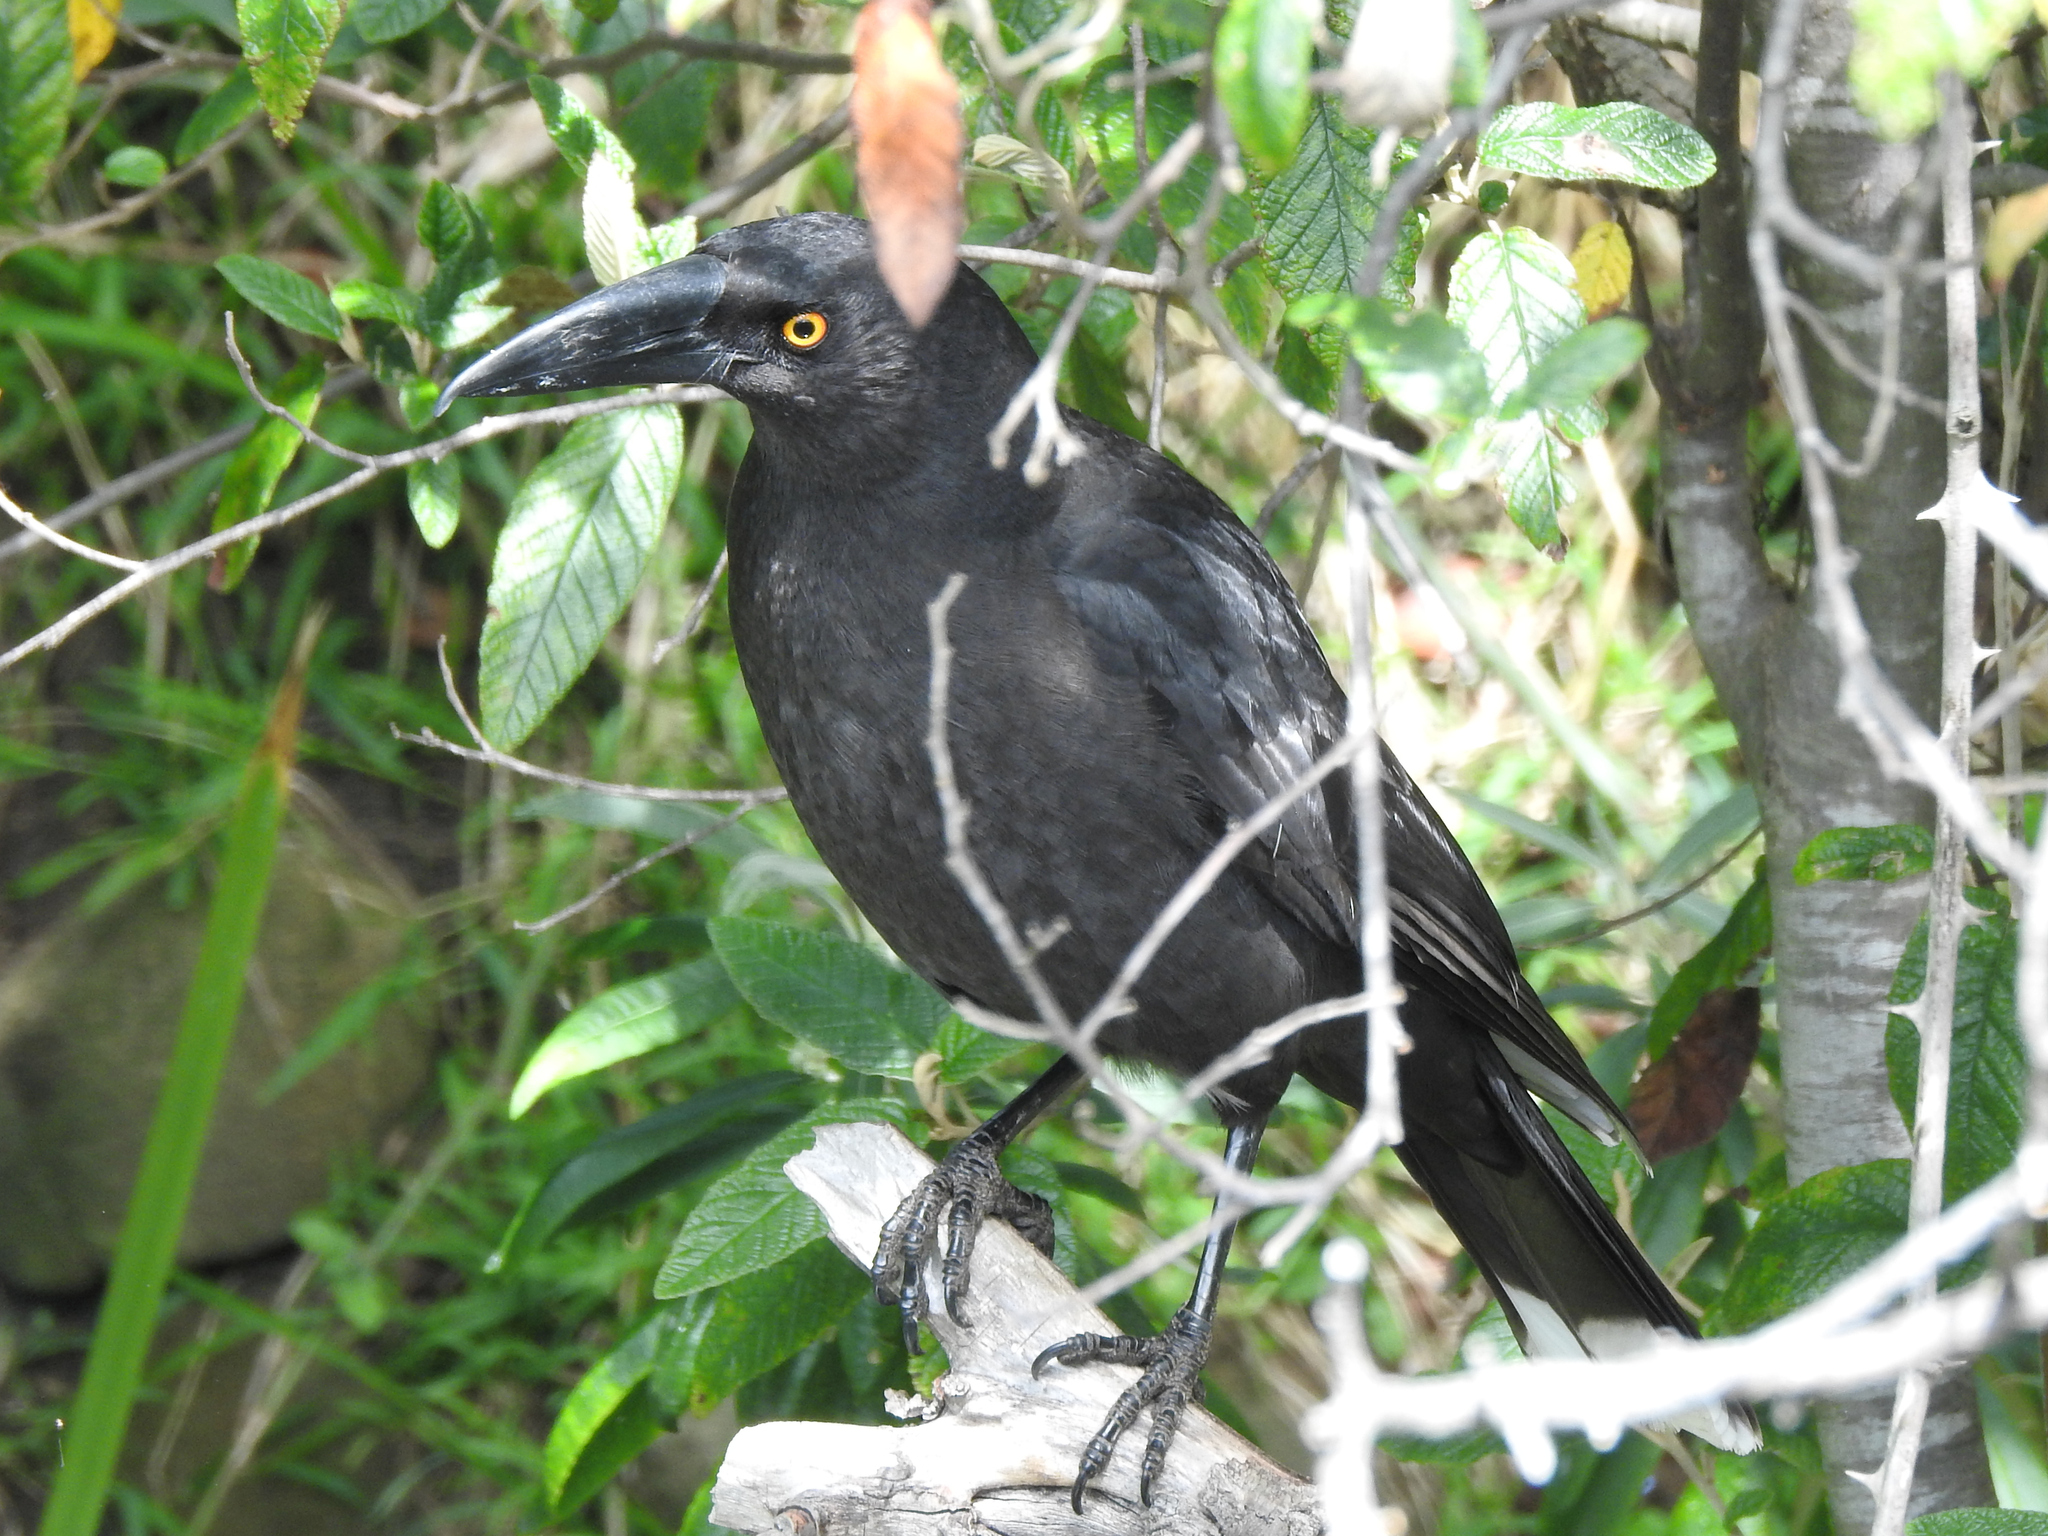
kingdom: Animalia
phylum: Chordata
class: Aves
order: Passeriformes
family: Cracticidae
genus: Strepera
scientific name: Strepera fuliginosa
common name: Black currawong
